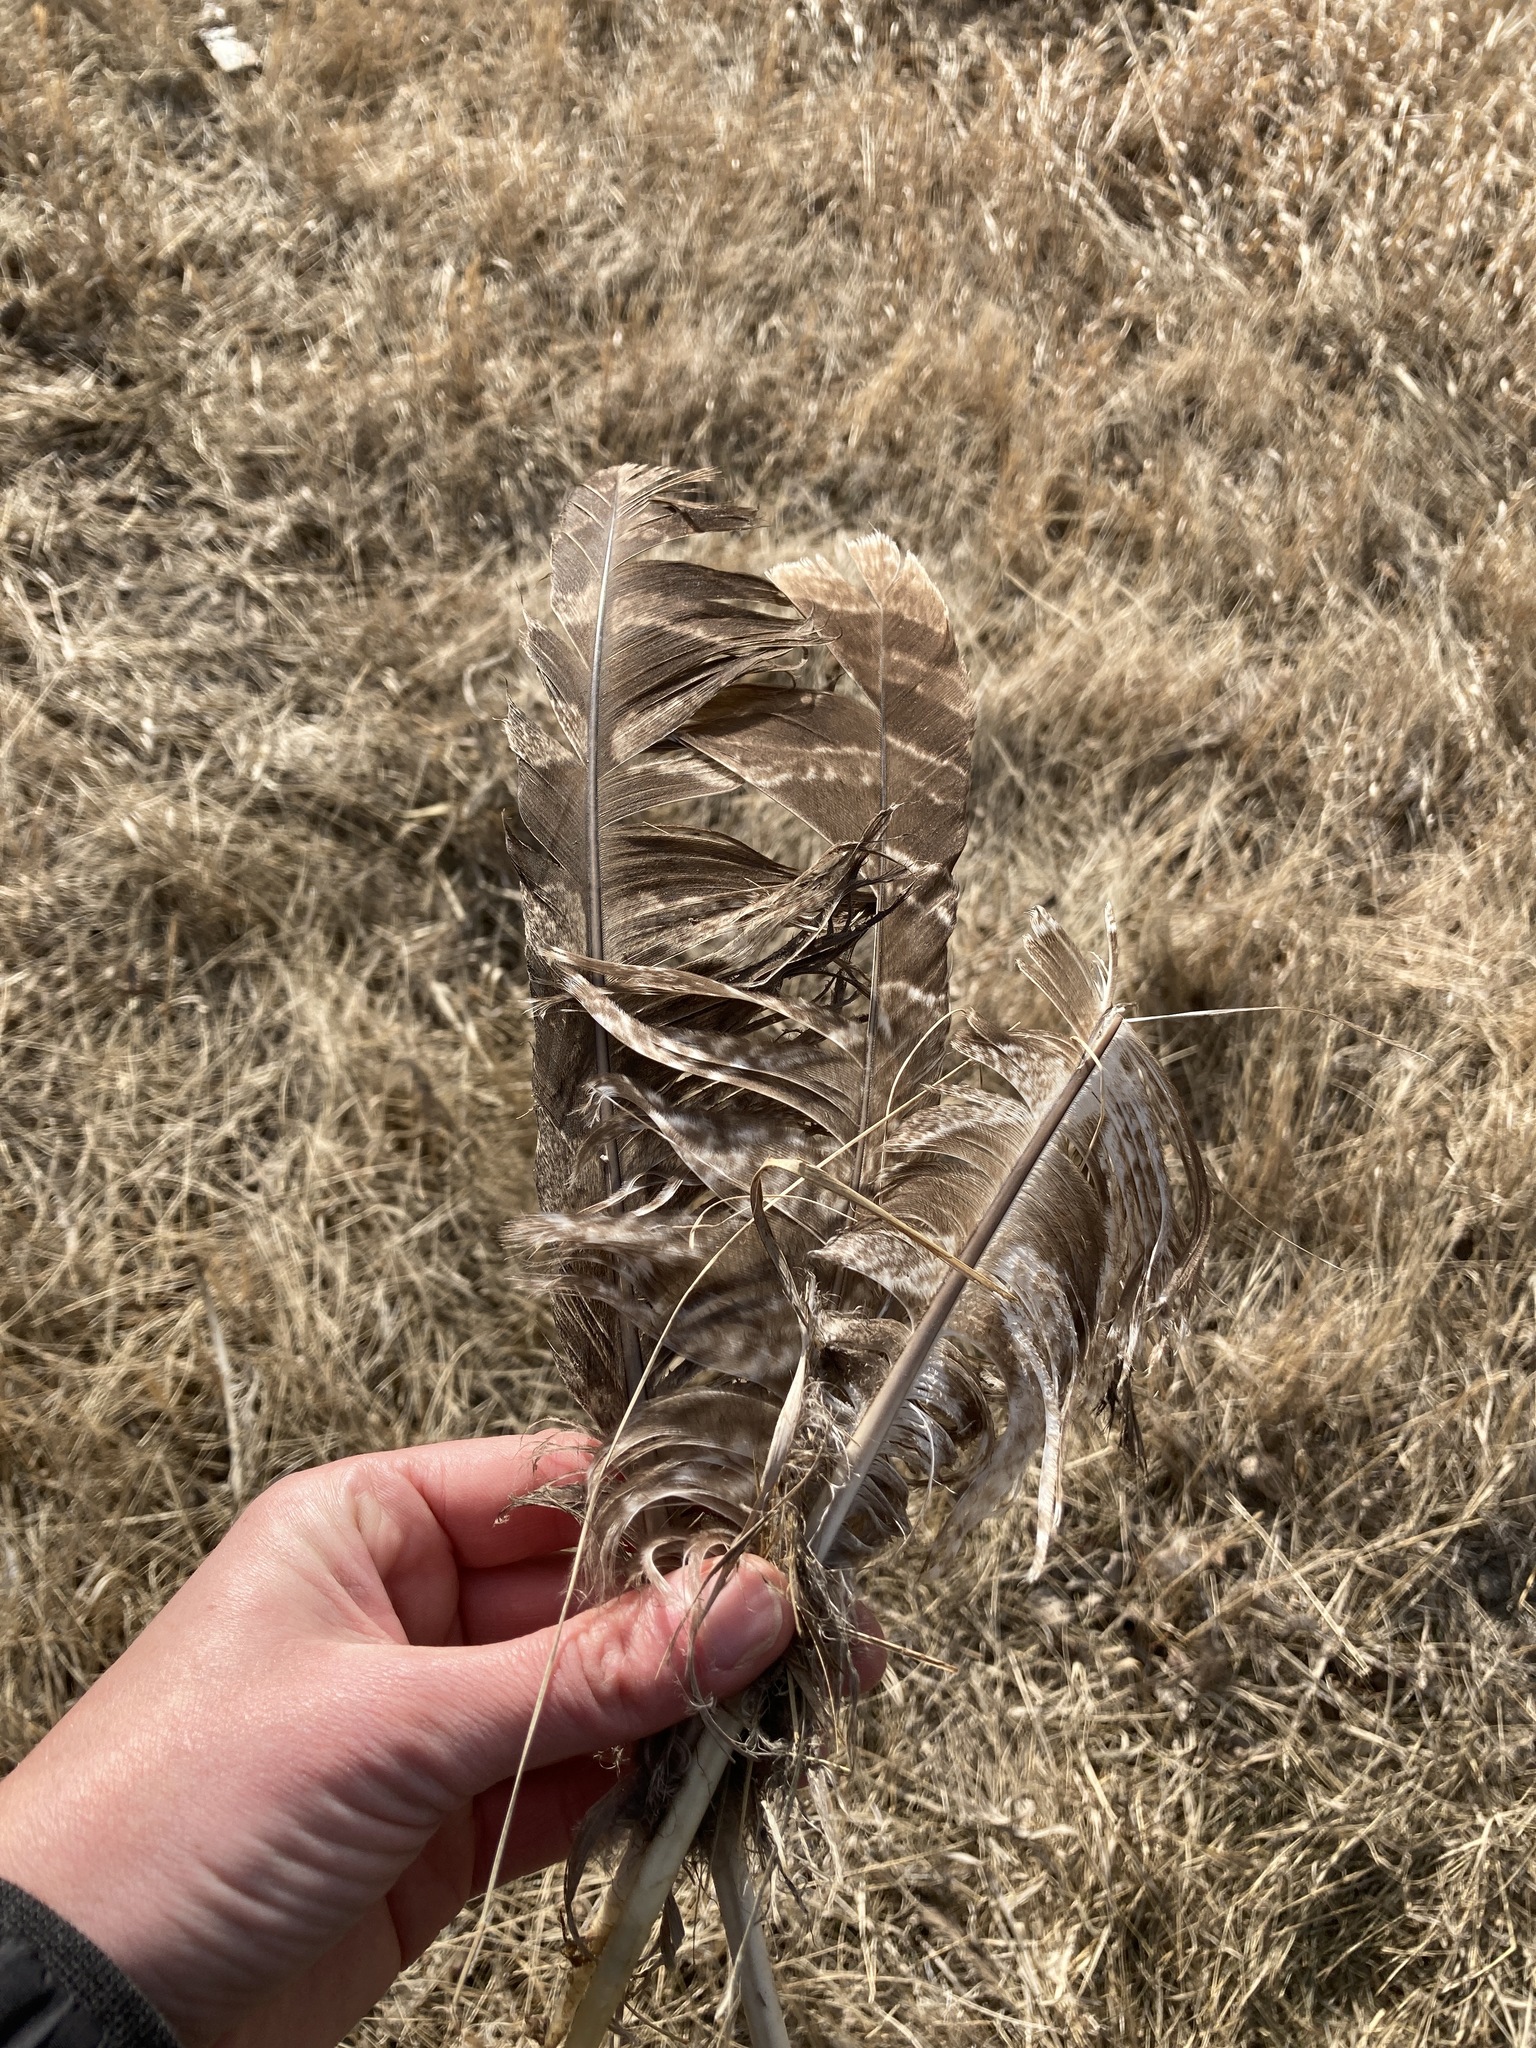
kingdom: Animalia
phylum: Chordata
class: Aves
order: Strigiformes
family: Strigidae
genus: Strix
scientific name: Strix nebulosa
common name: Great grey owl
